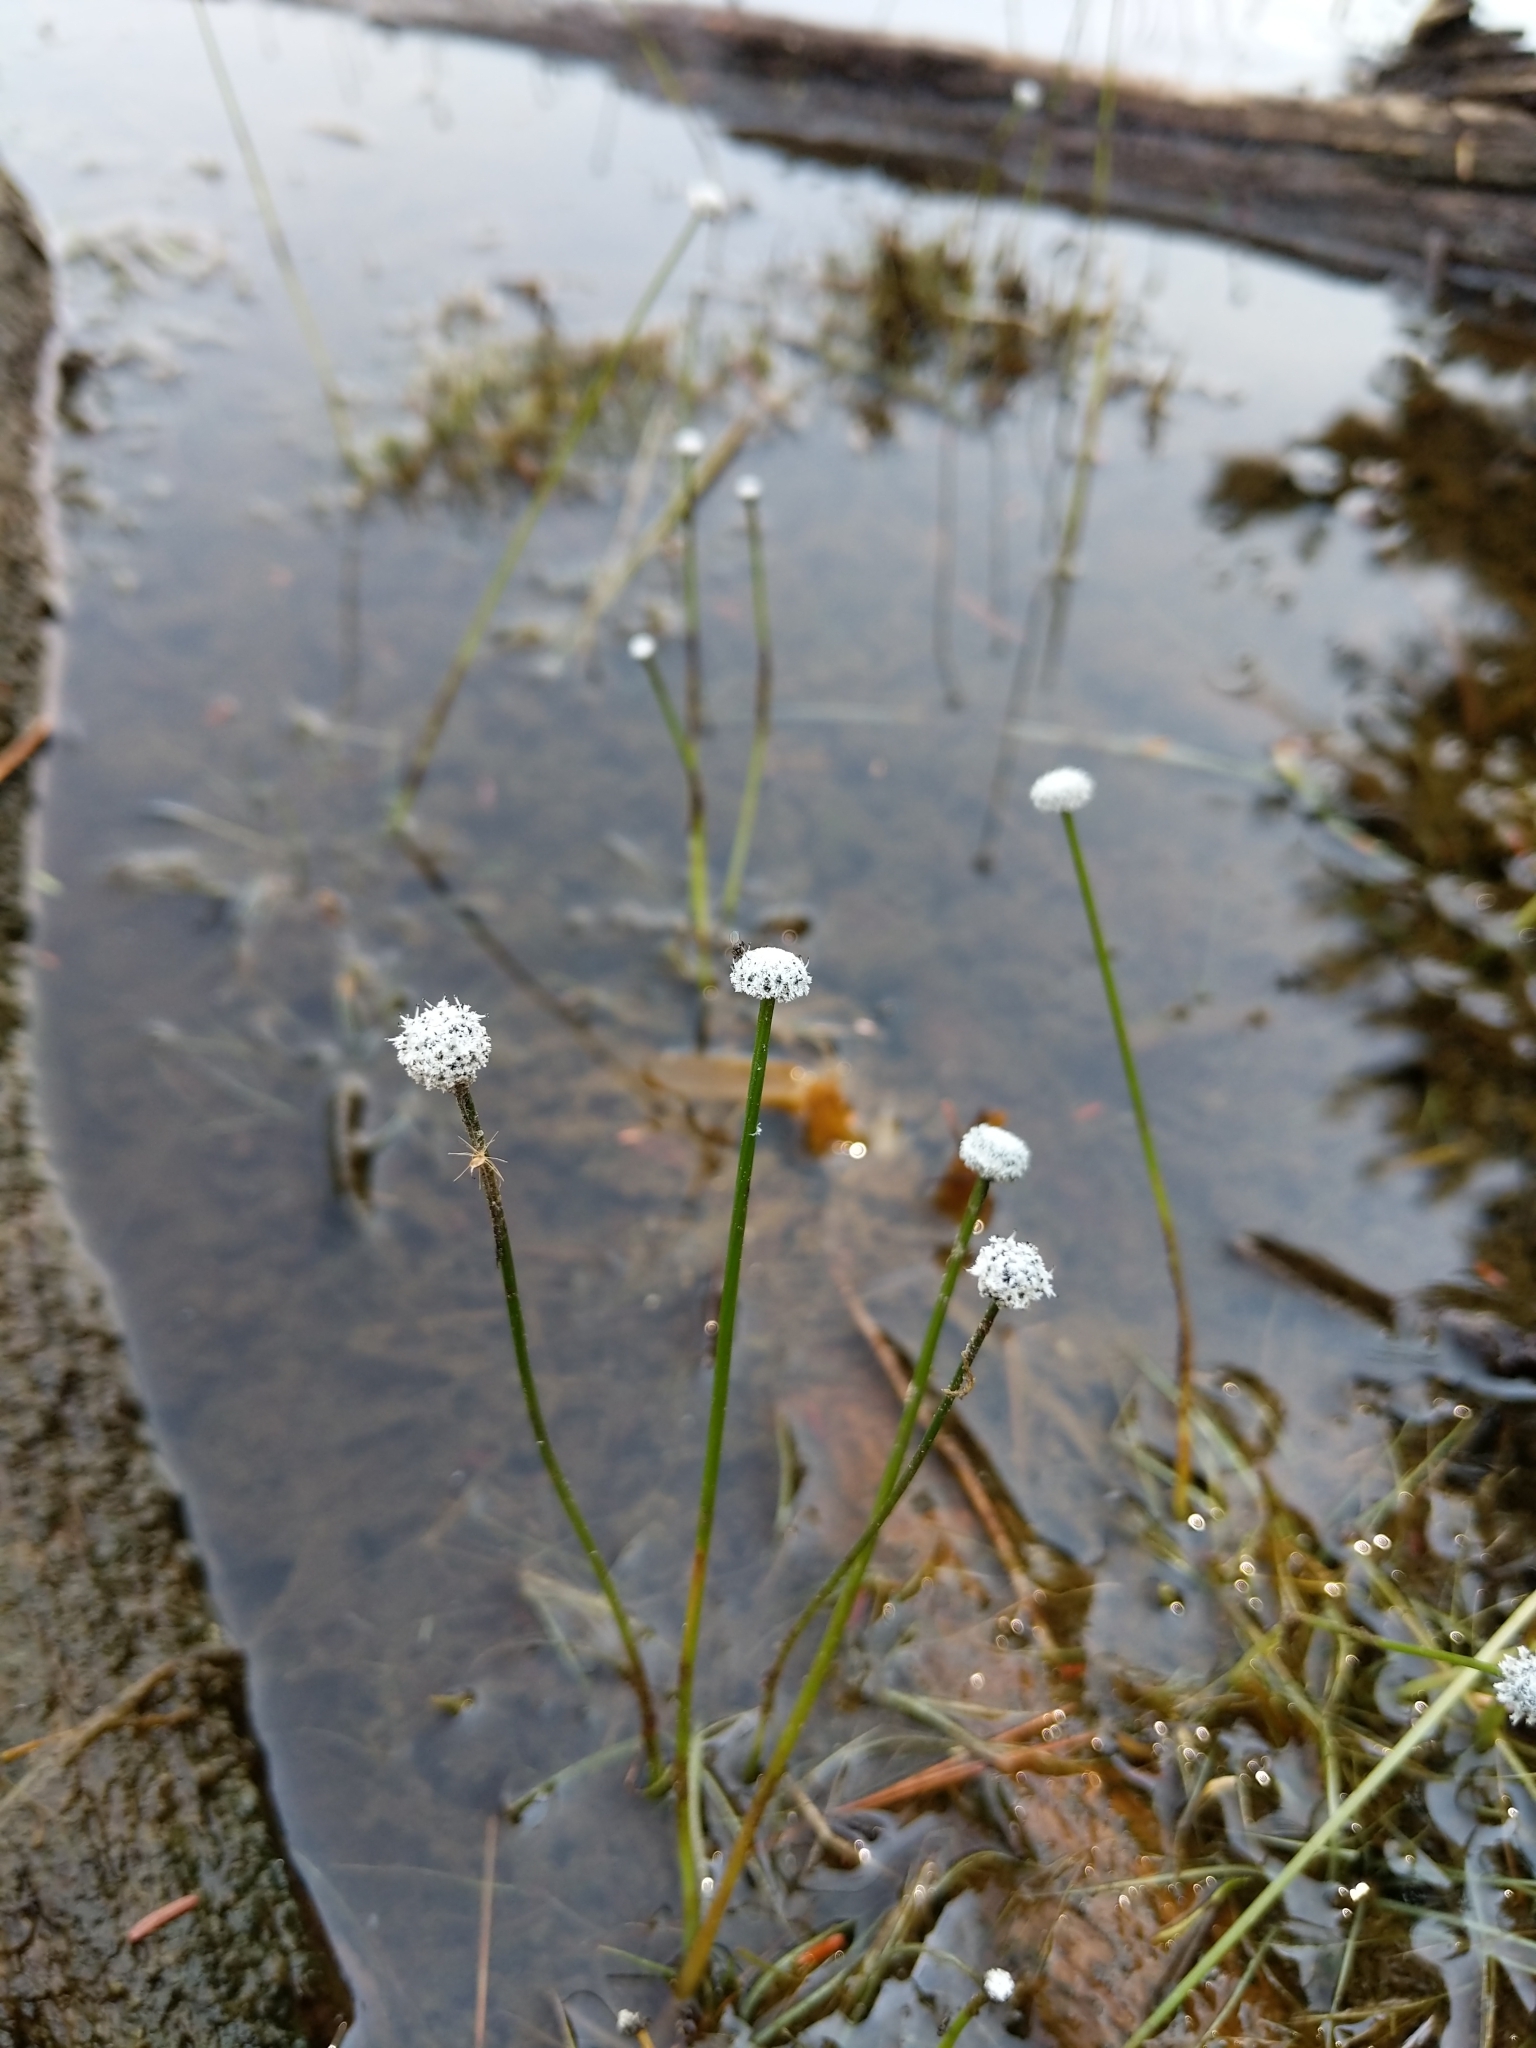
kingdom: Plantae
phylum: Tracheophyta
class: Liliopsida
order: Poales
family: Eriocaulaceae
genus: Eriocaulon
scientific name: Eriocaulon aquaticum
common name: Pipewort
